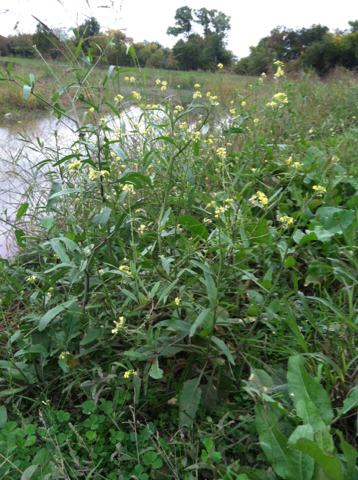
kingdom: Plantae
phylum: Tracheophyta
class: Magnoliopsida
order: Brassicales
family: Brassicaceae
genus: Rapistrum
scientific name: Rapistrum rugosum
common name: Annual bastardcabbage
